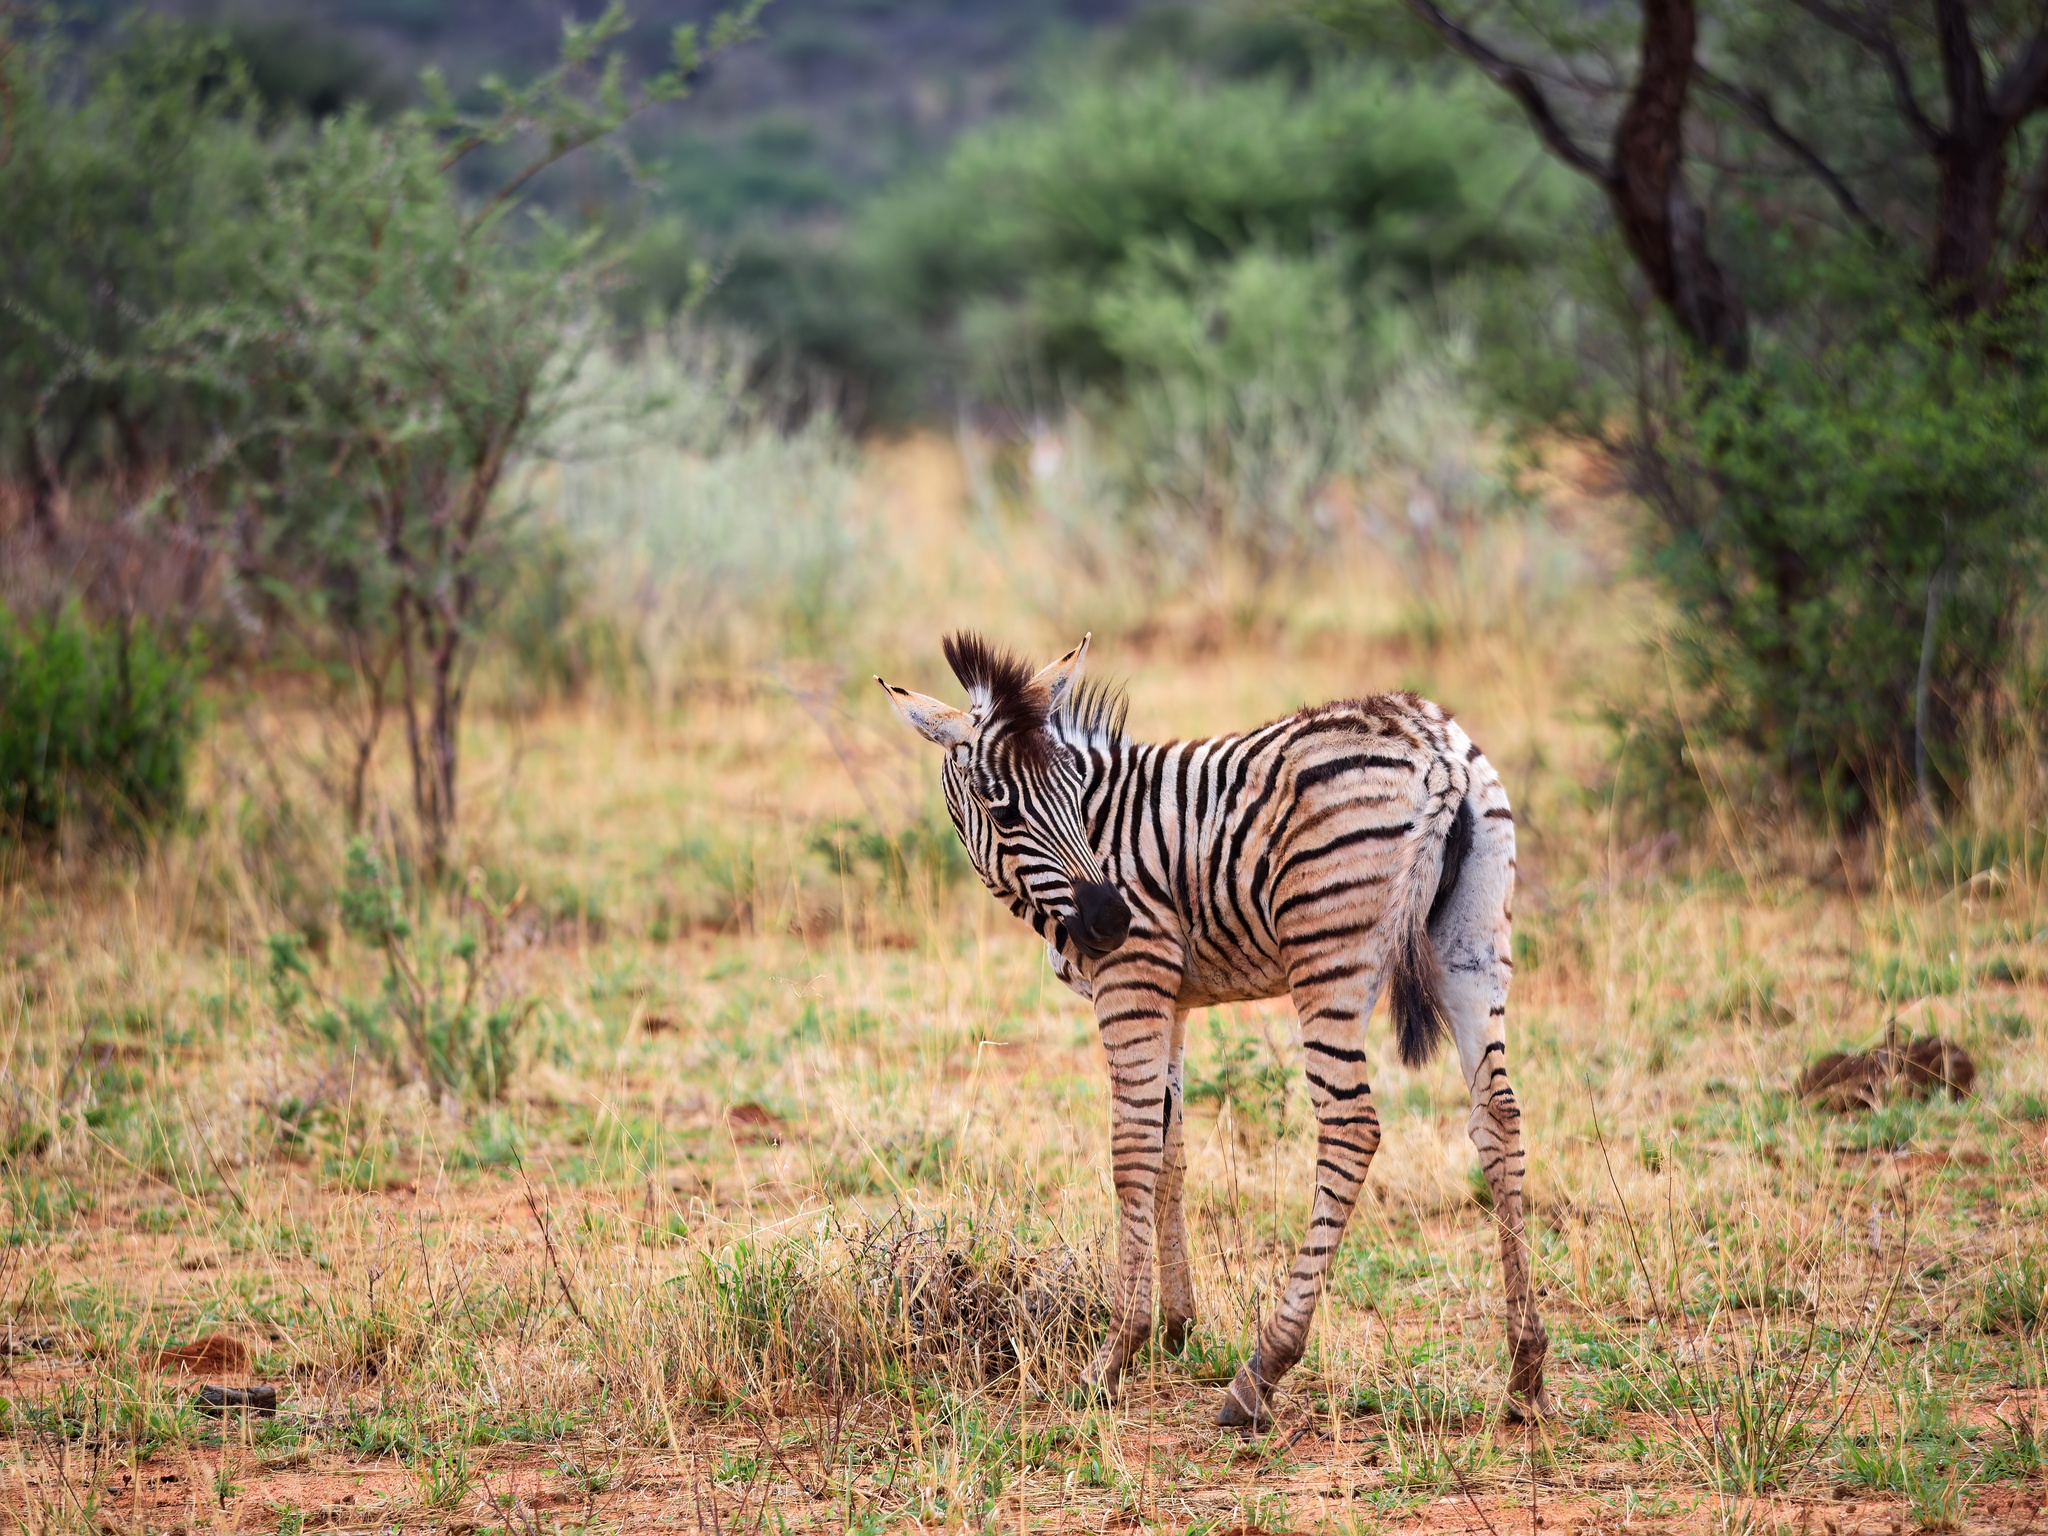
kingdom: Animalia
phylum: Chordata
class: Mammalia
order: Perissodactyla
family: Equidae
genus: Equus
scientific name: Equus quagga
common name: Plains zebra
